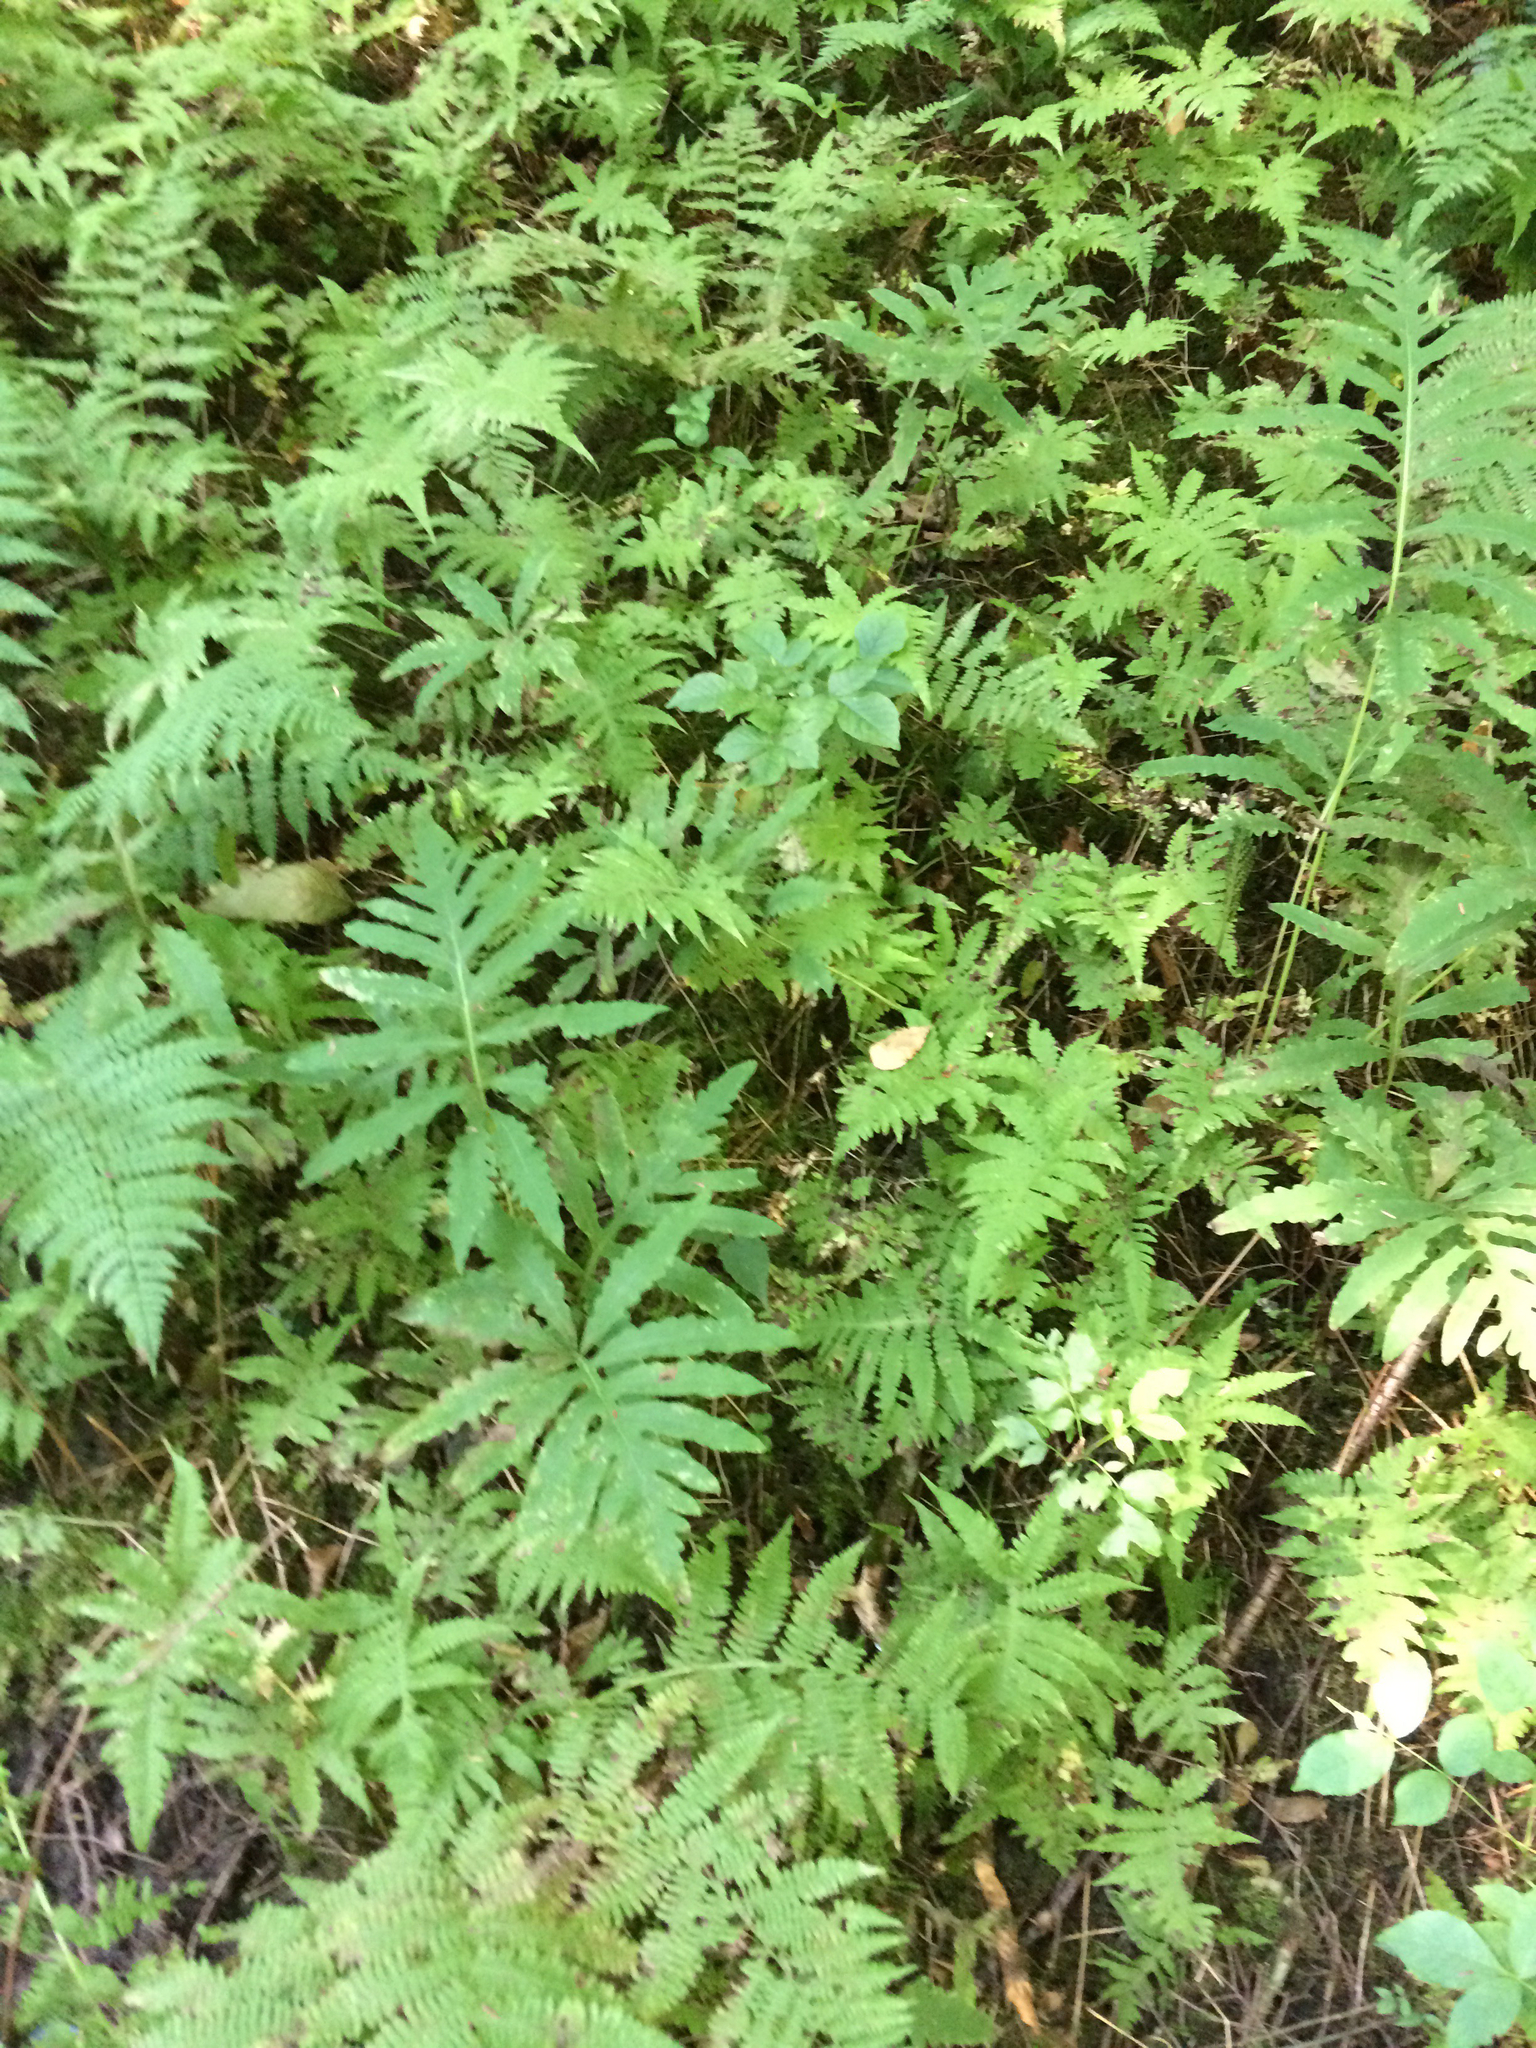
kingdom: Plantae
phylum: Tracheophyta
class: Polypodiopsida
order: Polypodiales
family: Onocleaceae
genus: Onoclea
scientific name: Onoclea sensibilis
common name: Sensitive fern
